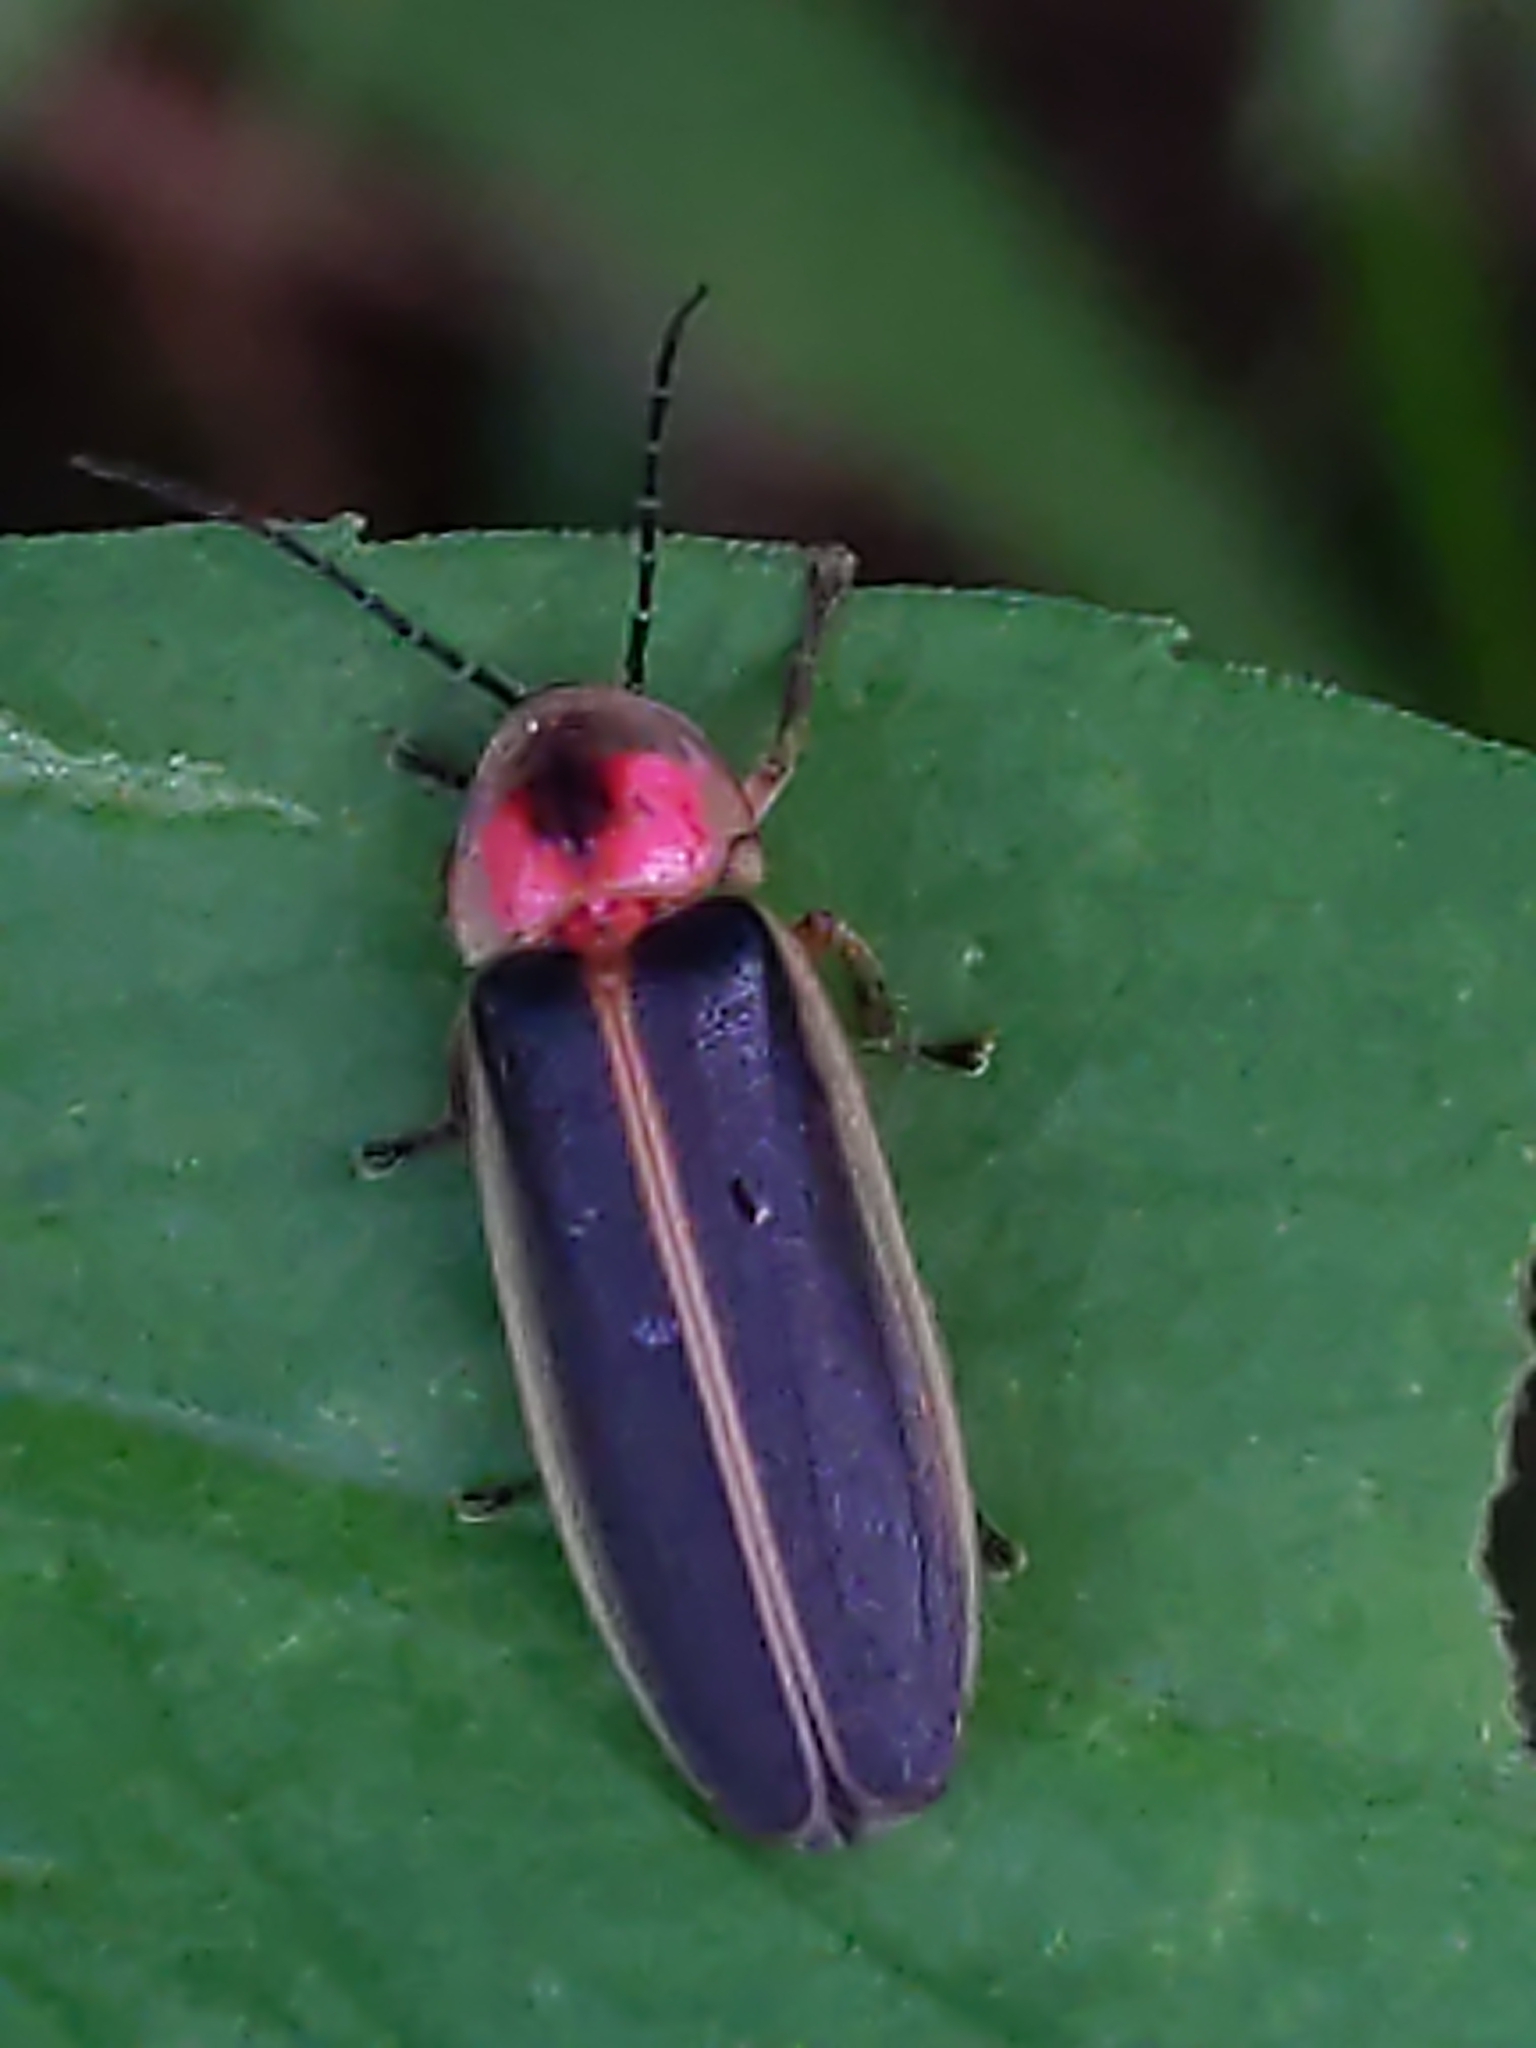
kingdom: Animalia
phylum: Arthropoda
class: Insecta
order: Coleoptera
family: Lampyridae
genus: Photinus
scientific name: Photinus pyralis
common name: Big dipper firefly
